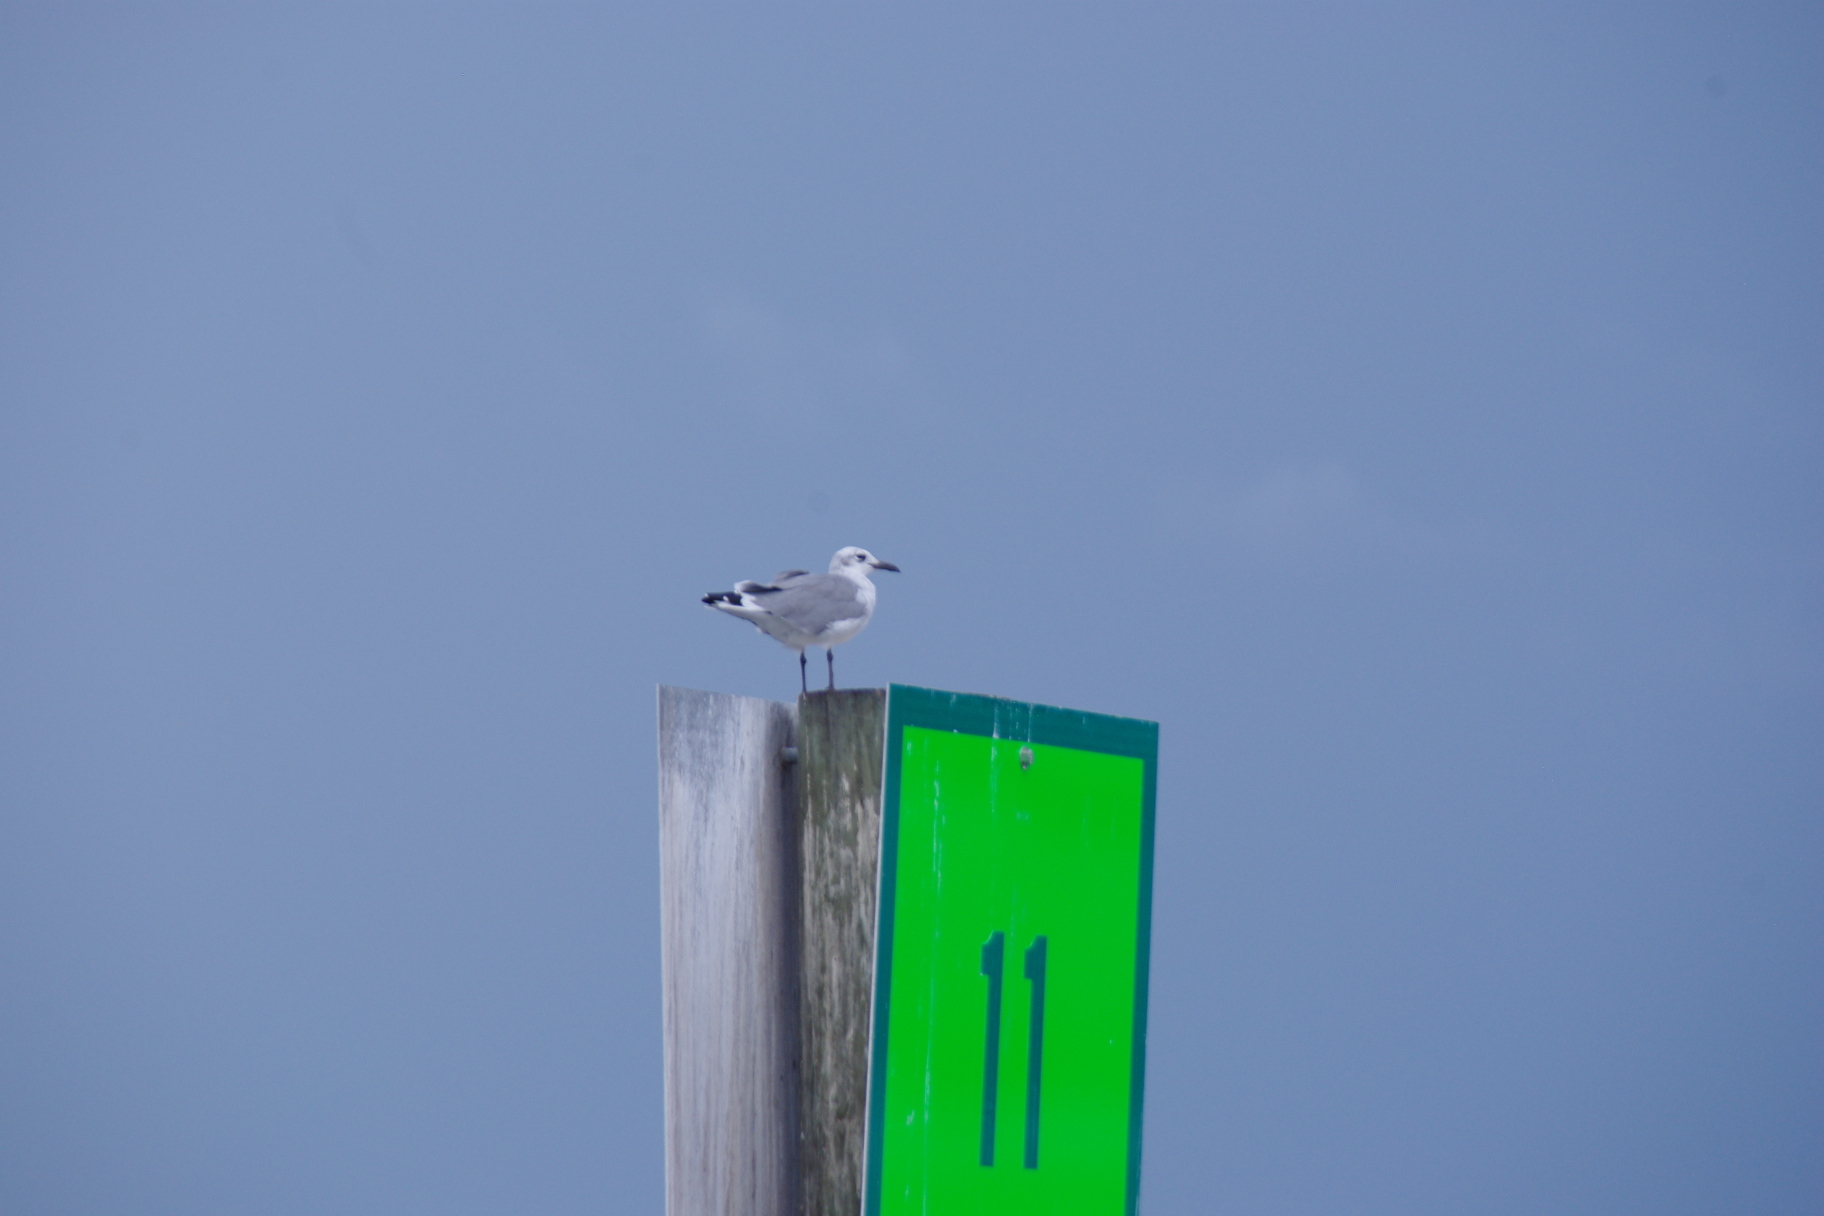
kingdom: Animalia
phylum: Chordata
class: Aves
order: Charadriiformes
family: Laridae
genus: Leucophaeus
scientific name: Leucophaeus atricilla
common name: Laughing gull
